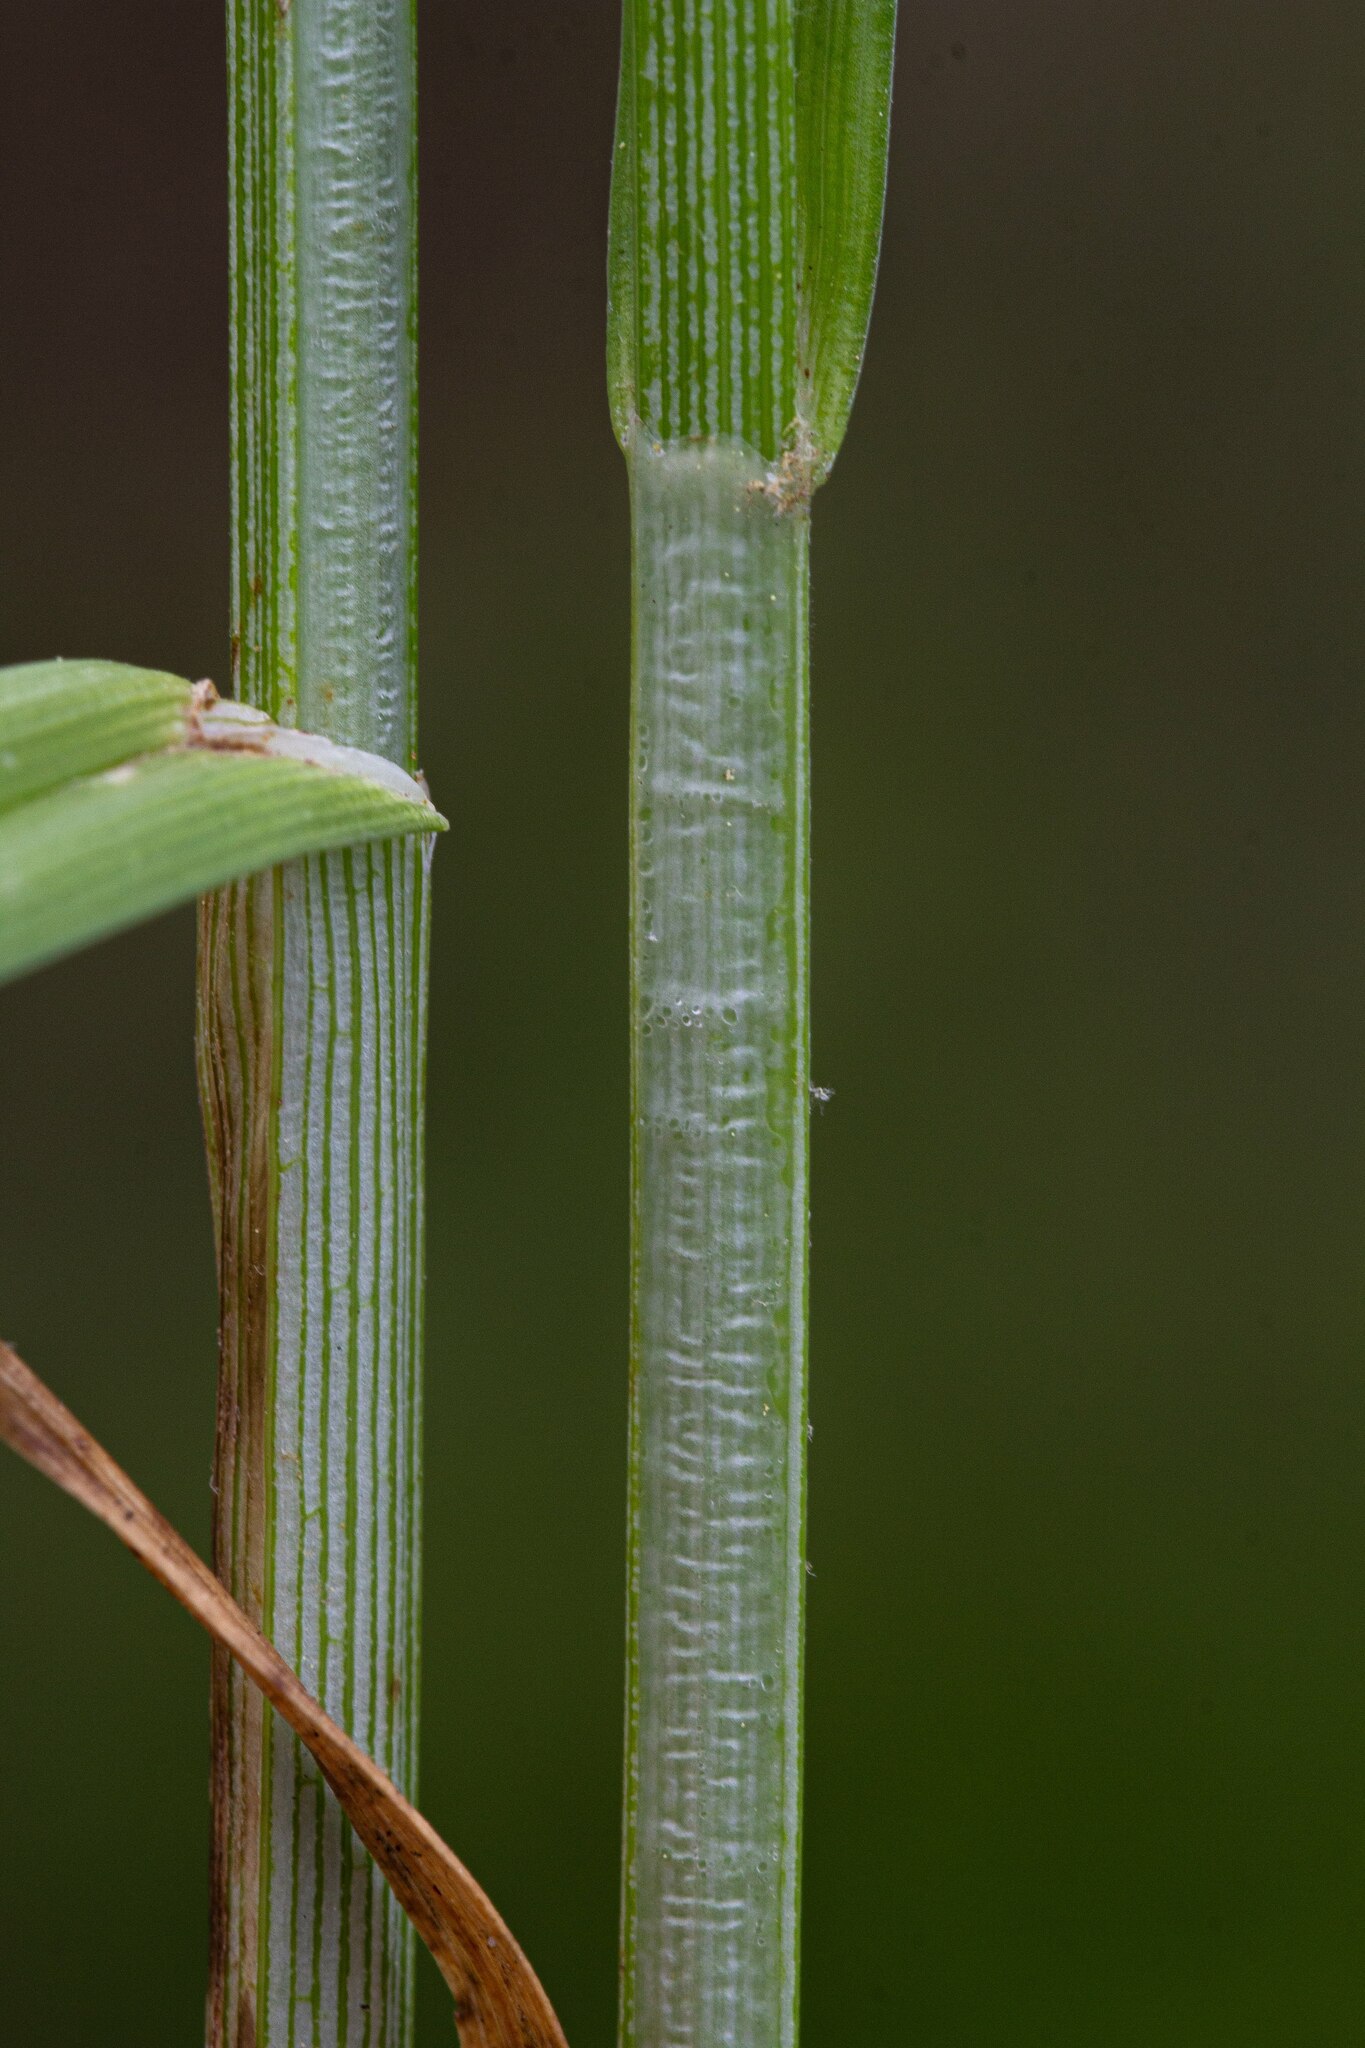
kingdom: Plantae
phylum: Tracheophyta
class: Liliopsida
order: Poales
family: Cyperaceae
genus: Carex
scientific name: Carex muehlenbergii
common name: Muhlenberg's bracted sedge
